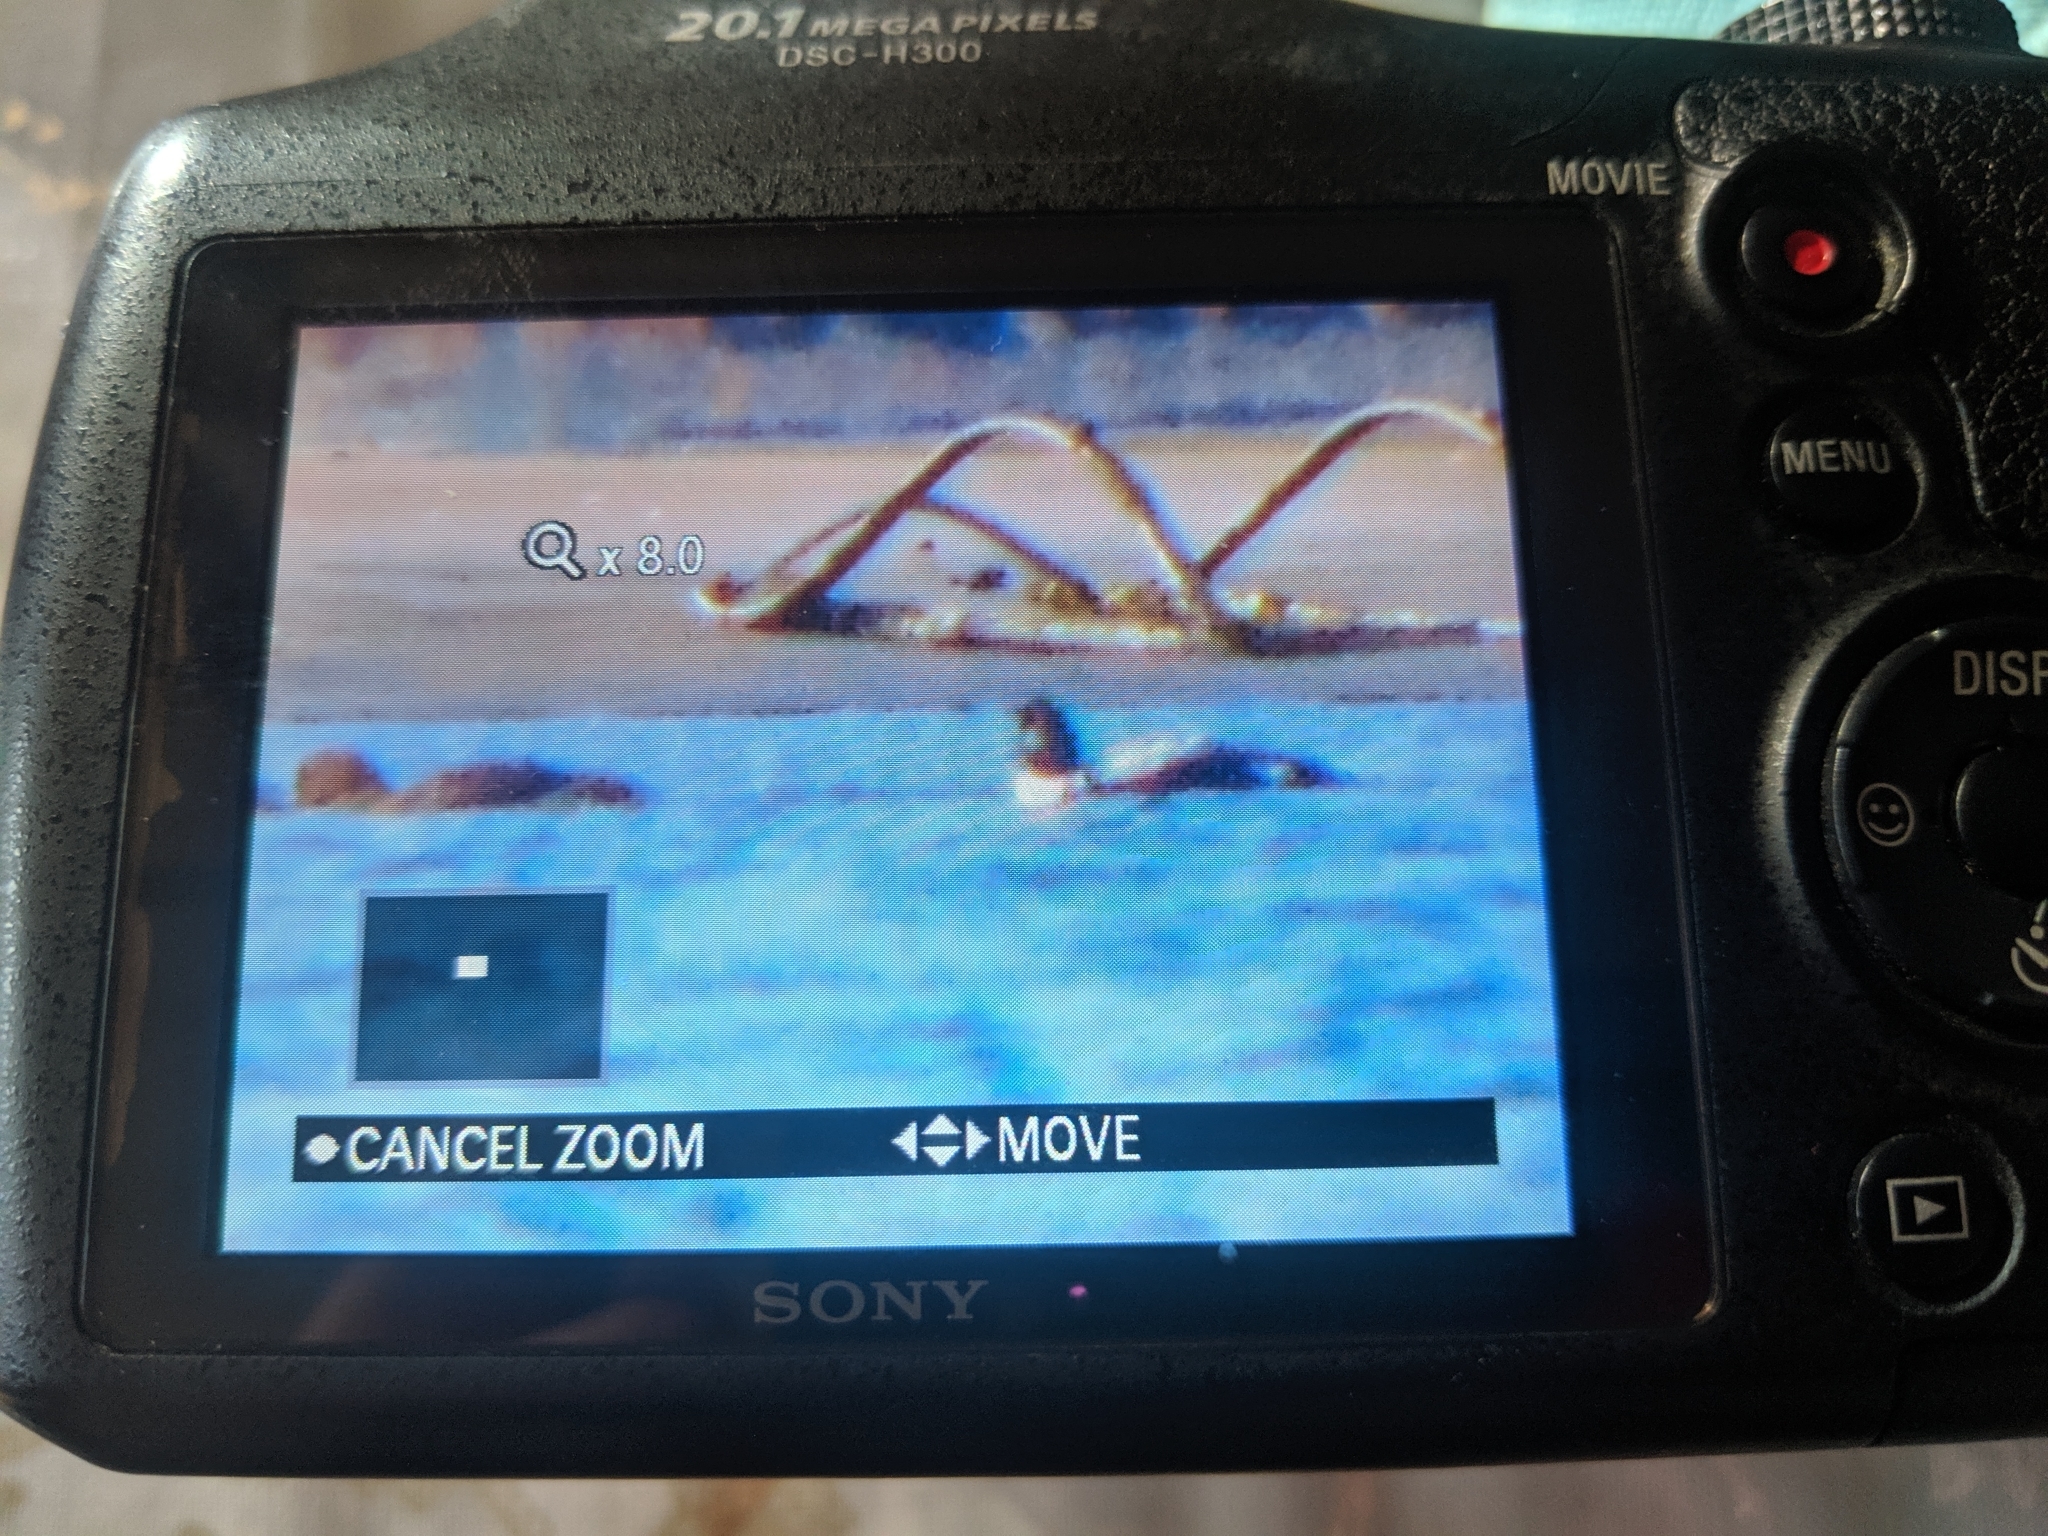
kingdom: Animalia
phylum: Chordata
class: Aves
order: Anseriformes
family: Anatidae
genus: Bucephala
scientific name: Bucephala clangula
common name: Common goldeneye
